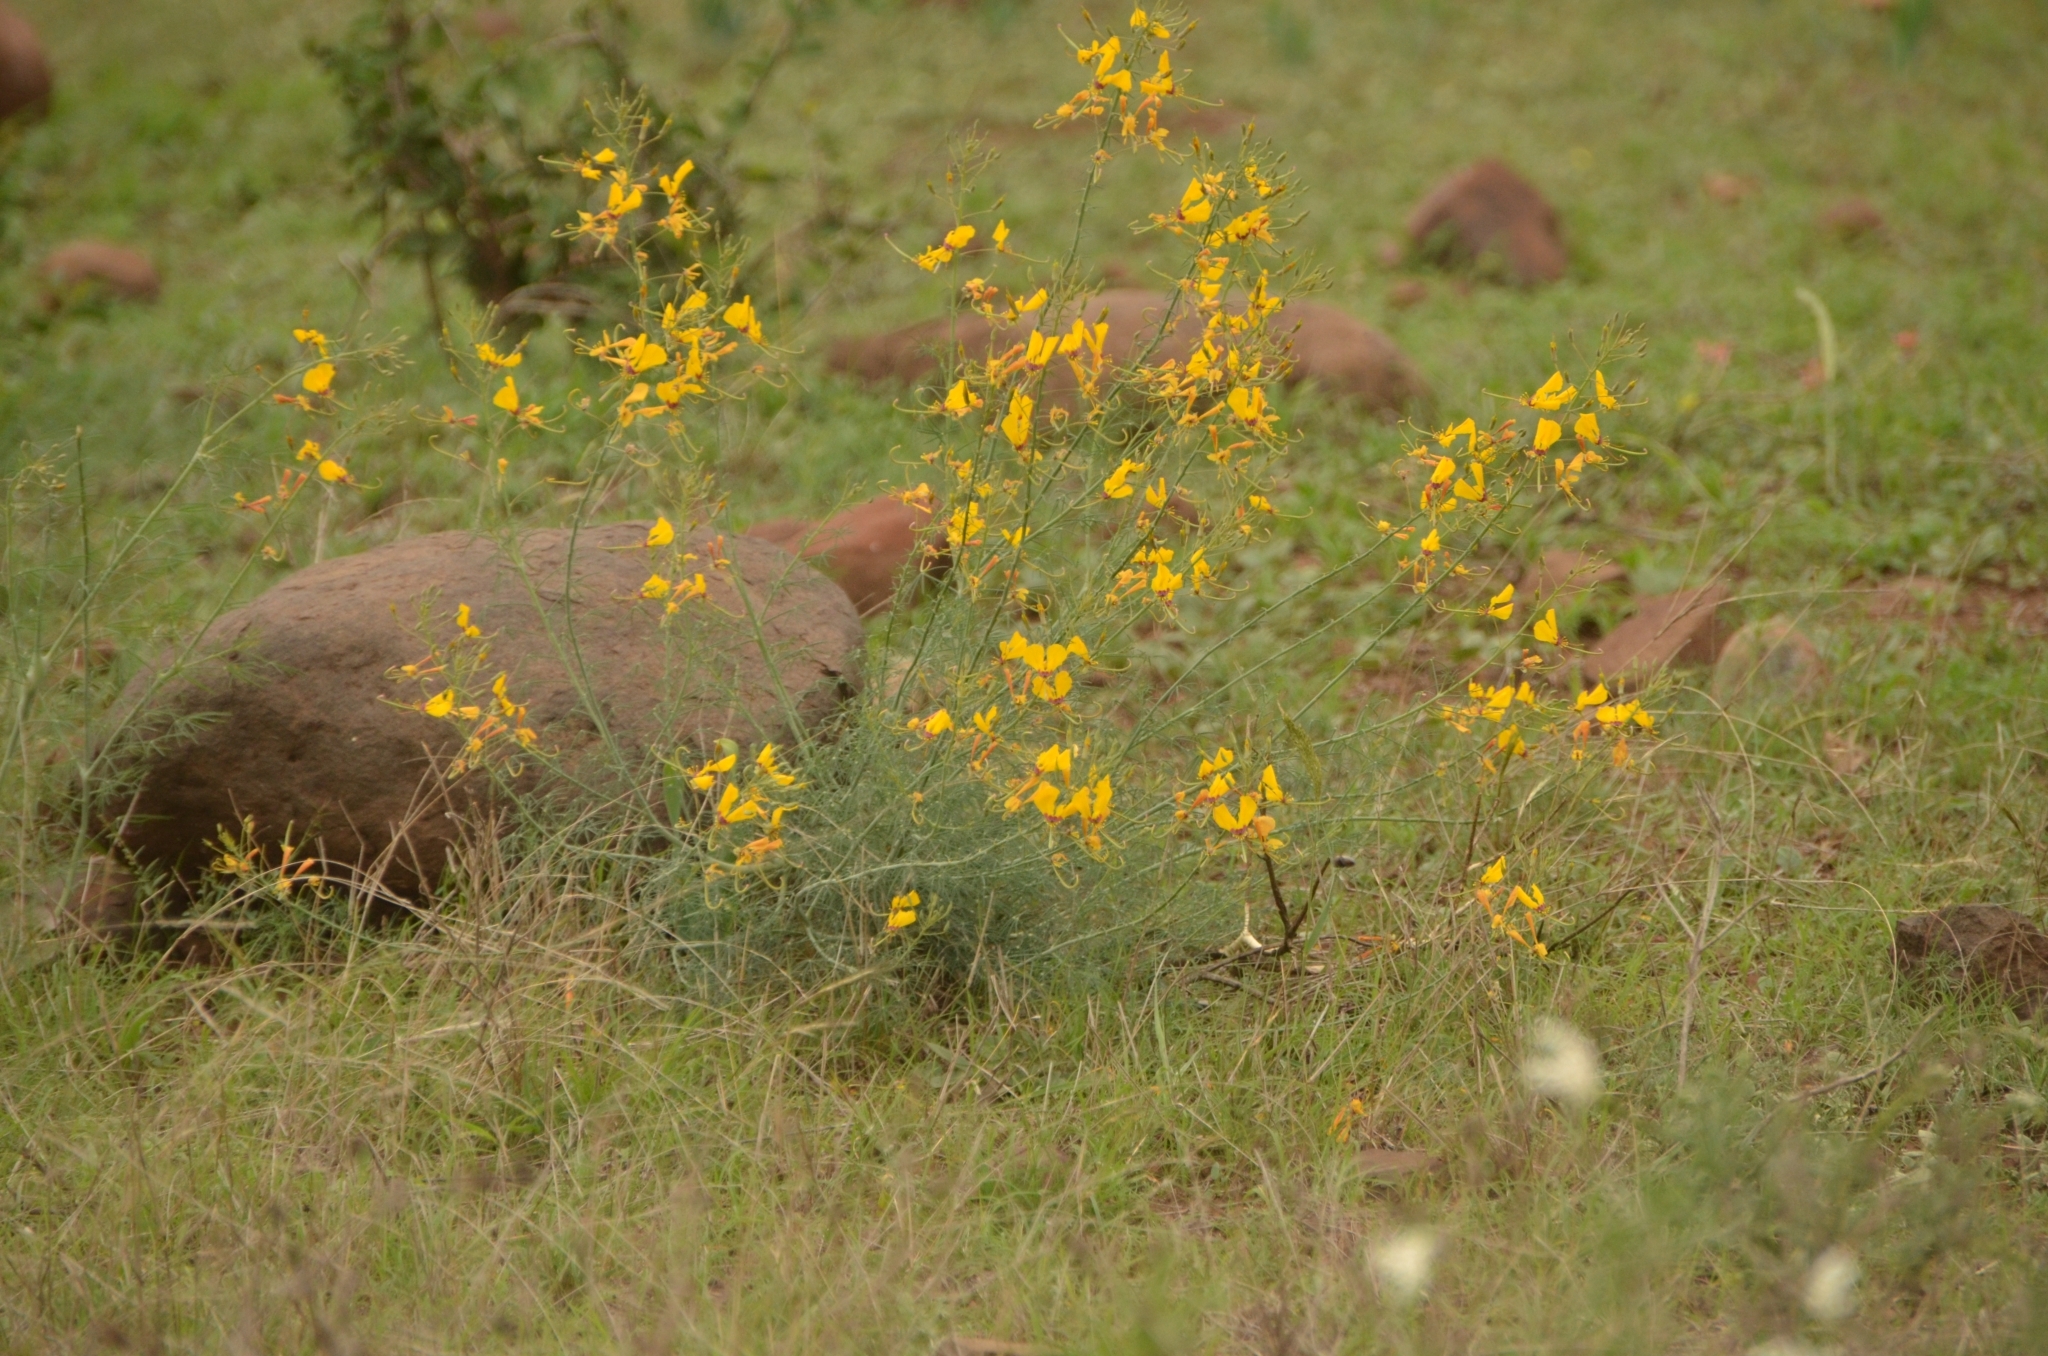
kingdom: Plantae
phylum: Tracheophyta
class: Magnoliopsida
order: Brassicales
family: Cleomaceae
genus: Coalisina
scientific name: Coalisina
